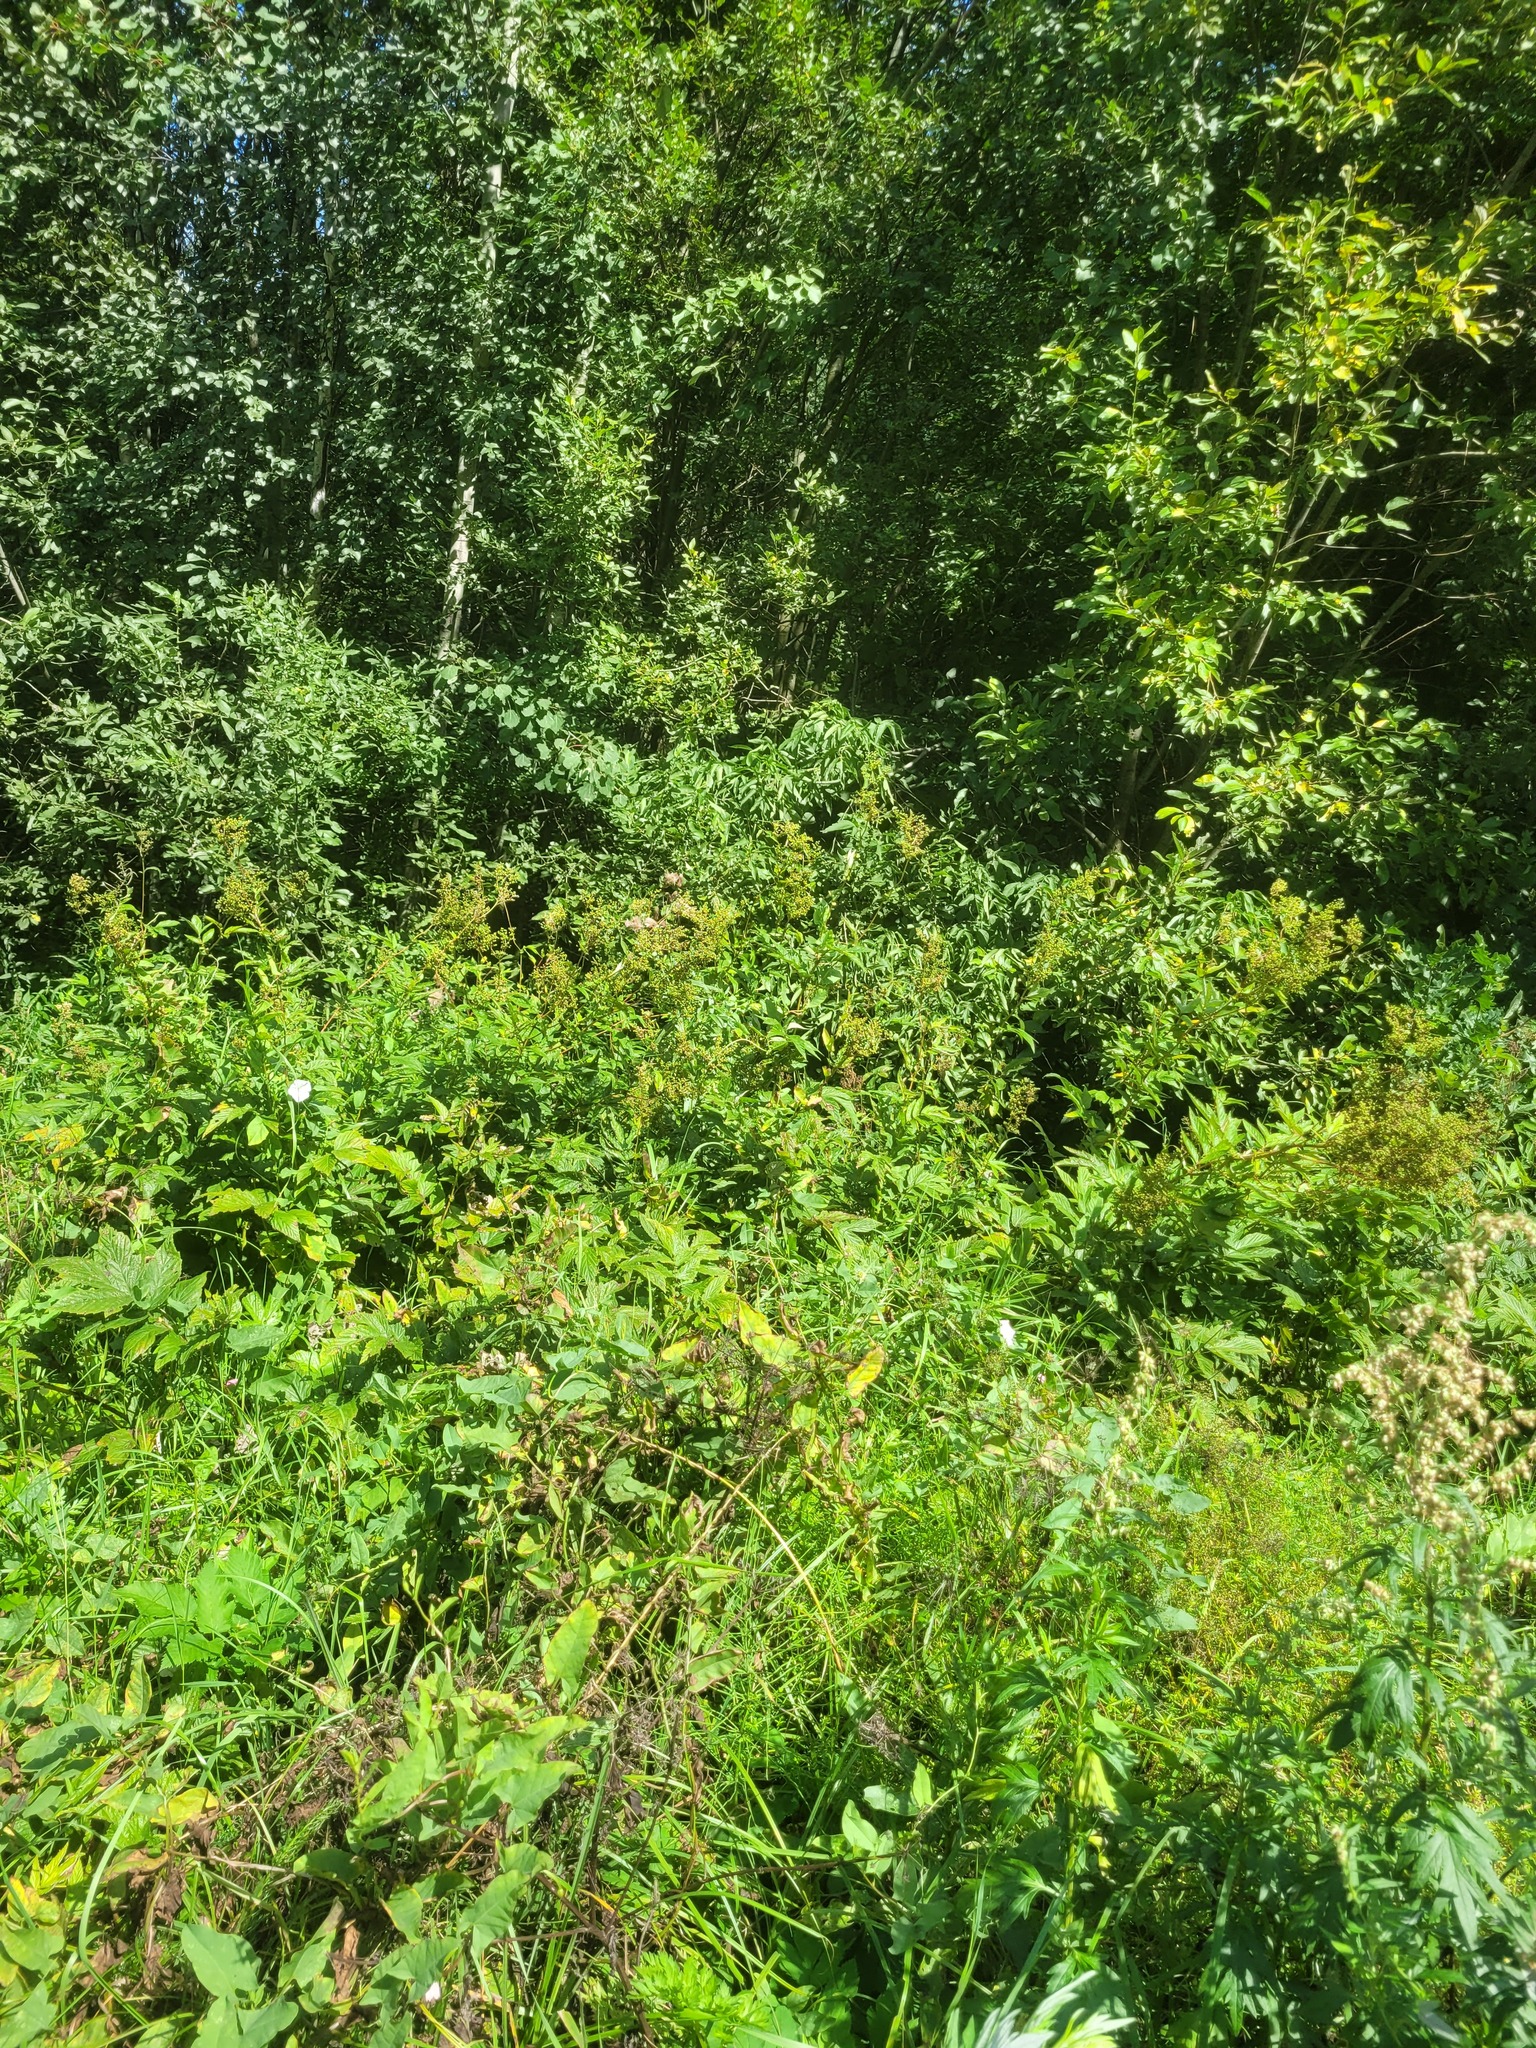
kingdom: Plantae
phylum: Tracheophyta
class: Magnoliopsida
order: Rosales
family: Rosaceae
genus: Filipendula
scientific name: Filipendula ulmaria
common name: Meadowsweet
